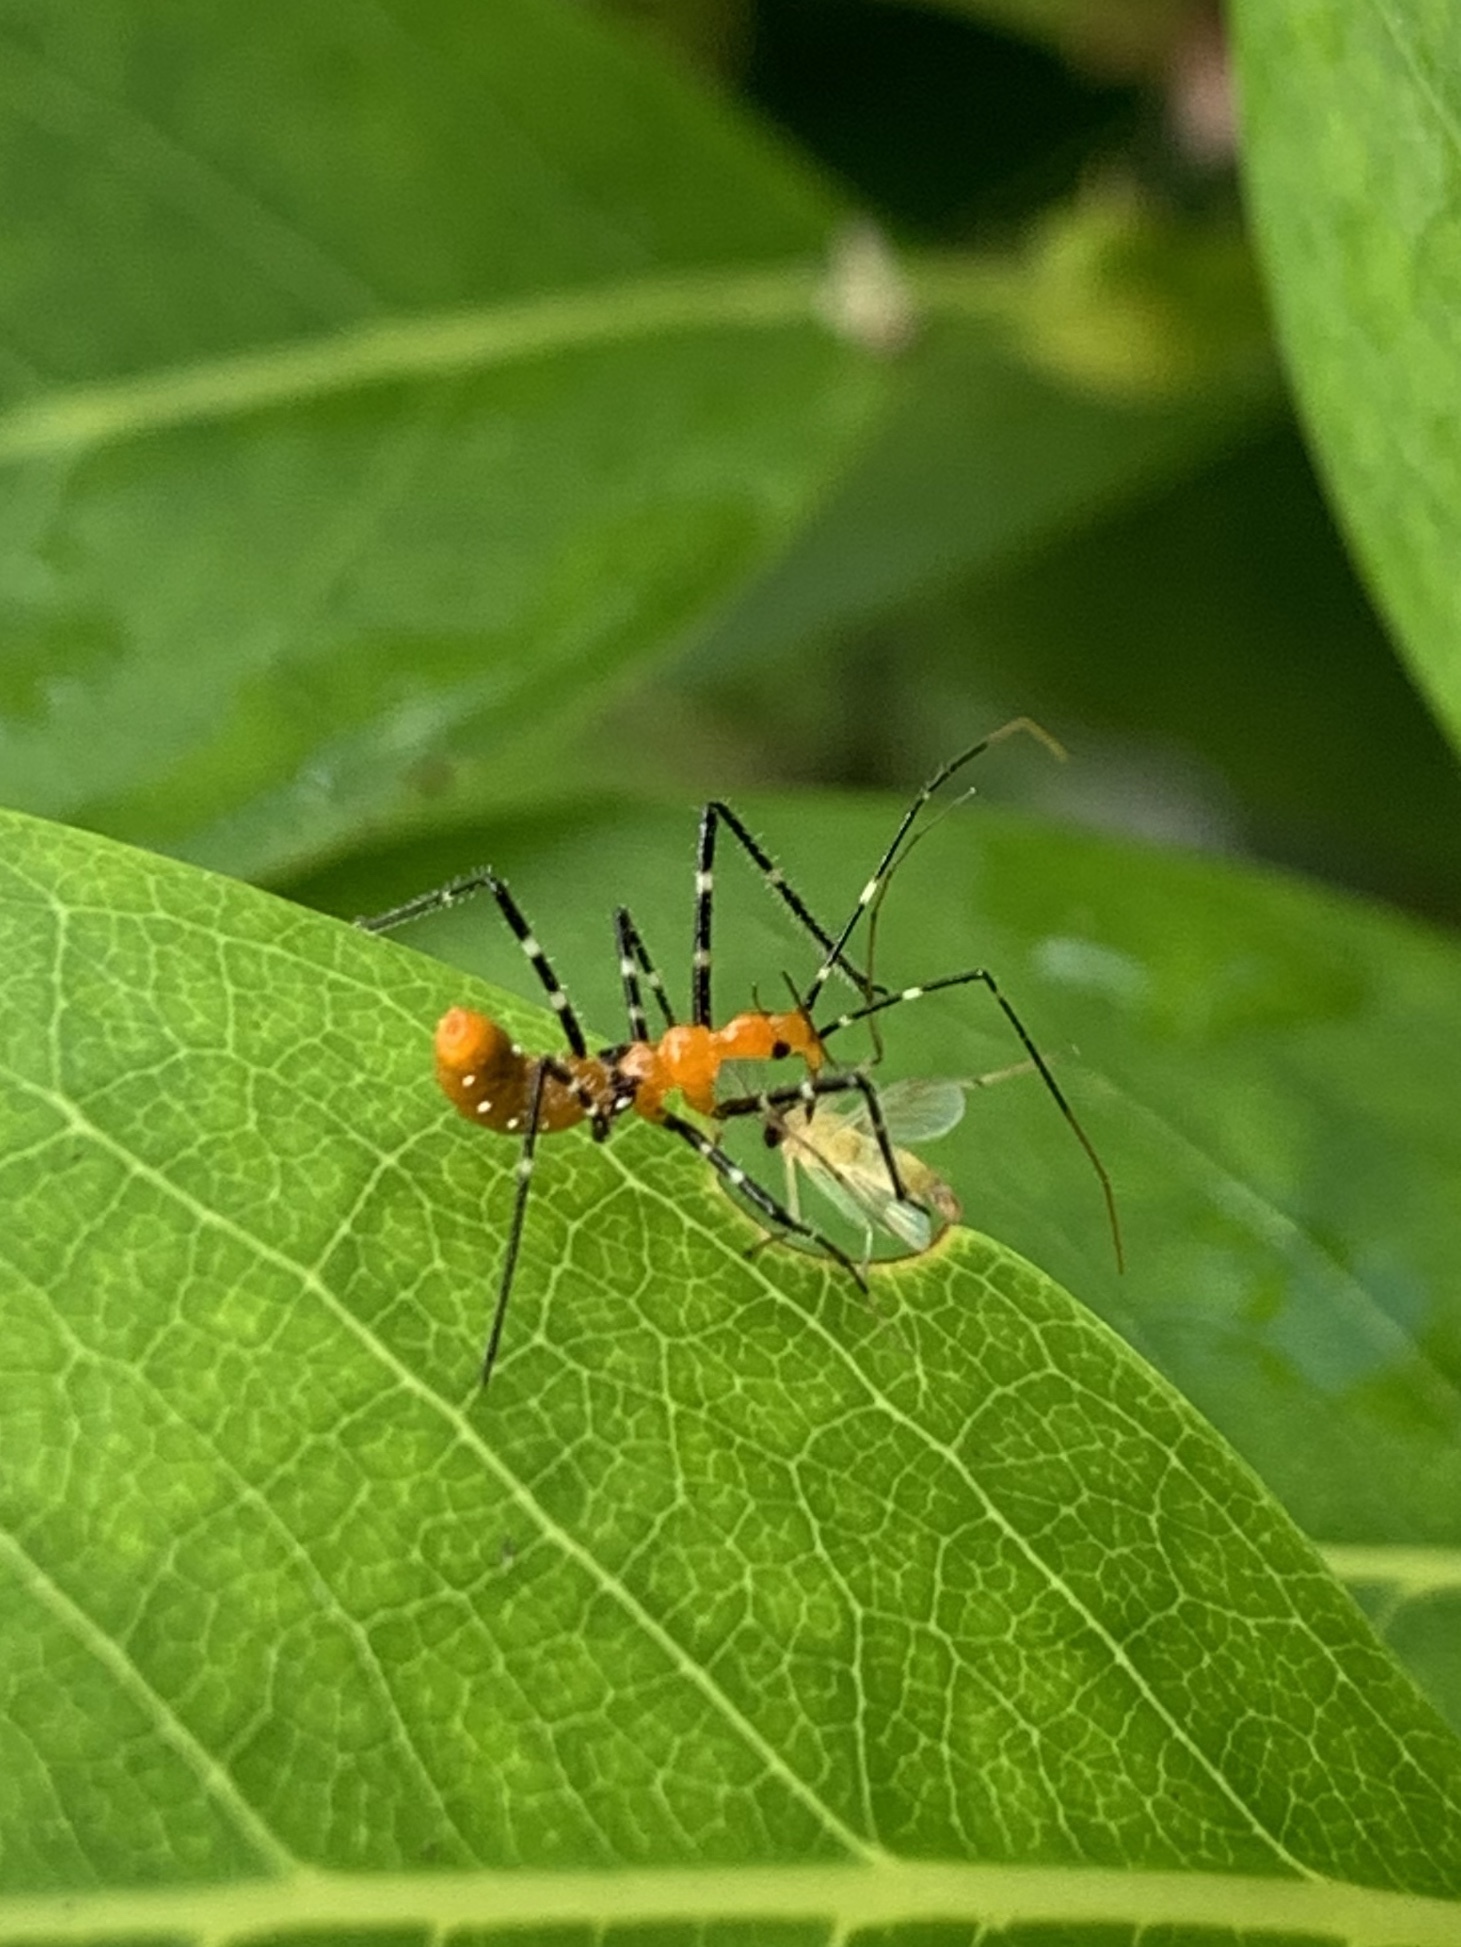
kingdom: Animalia
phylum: Arthropoda
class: Insecta
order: Hemiptera
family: Reduviidae
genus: Zelus
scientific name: Zelus longipes
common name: Milkweed assassin bug
